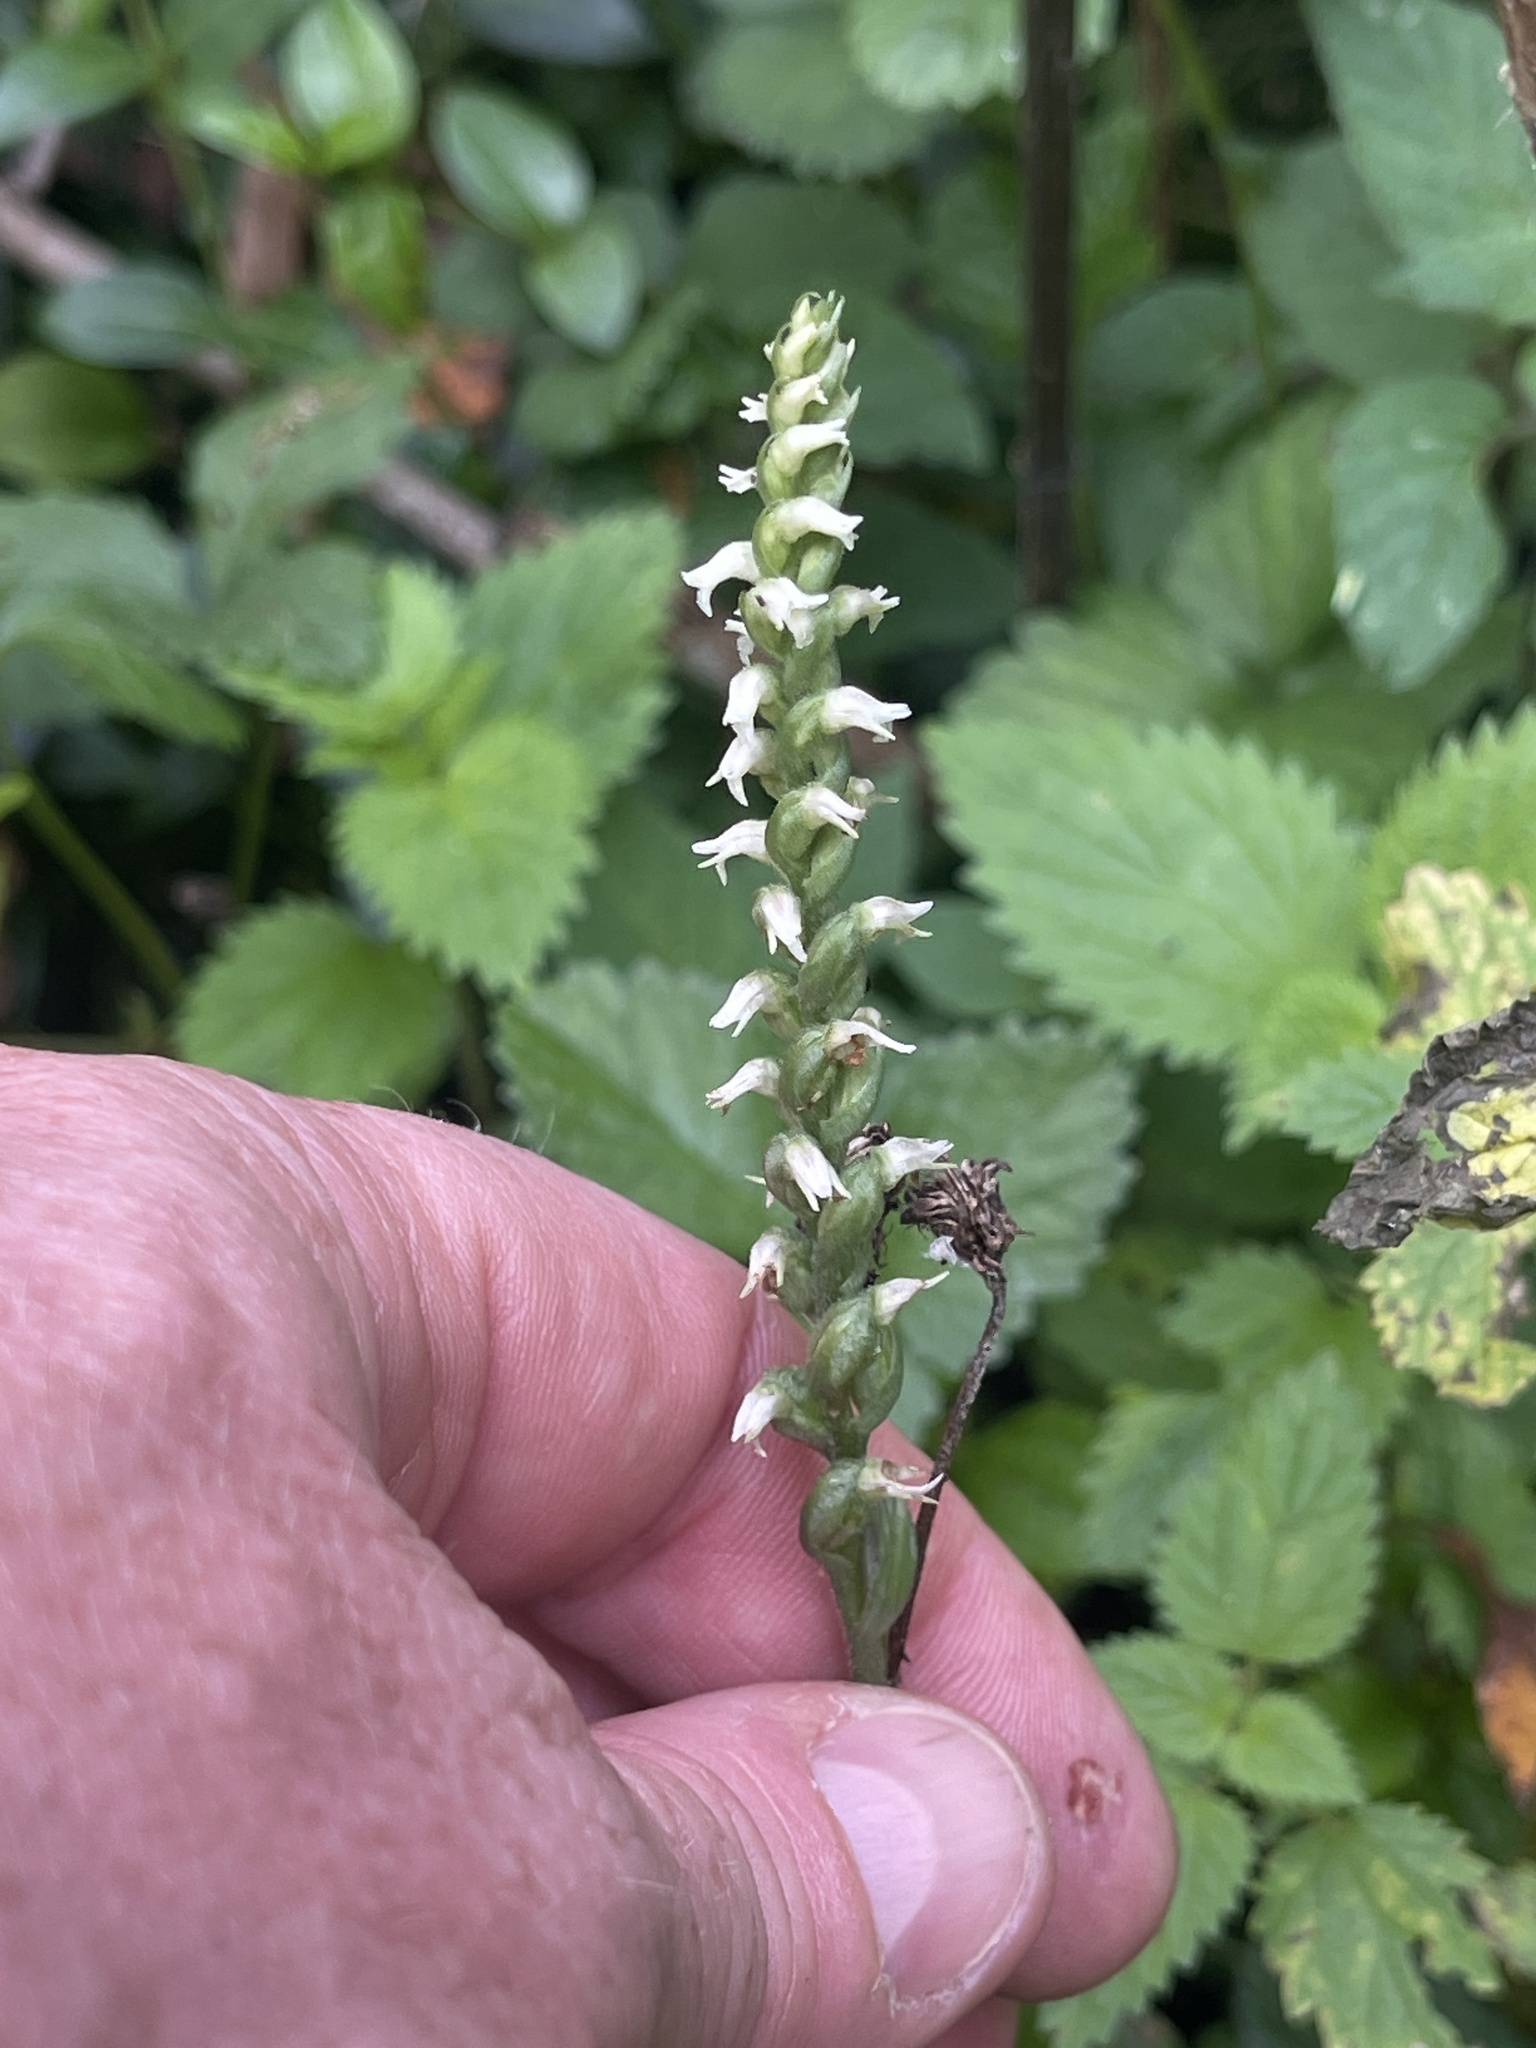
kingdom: Plantae
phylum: Tracheophyta
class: Liliopsida
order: Asparagales
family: Orchidaceae
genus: Spiranthes
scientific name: Spiranthes ovalis
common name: October ladies'-tresses
